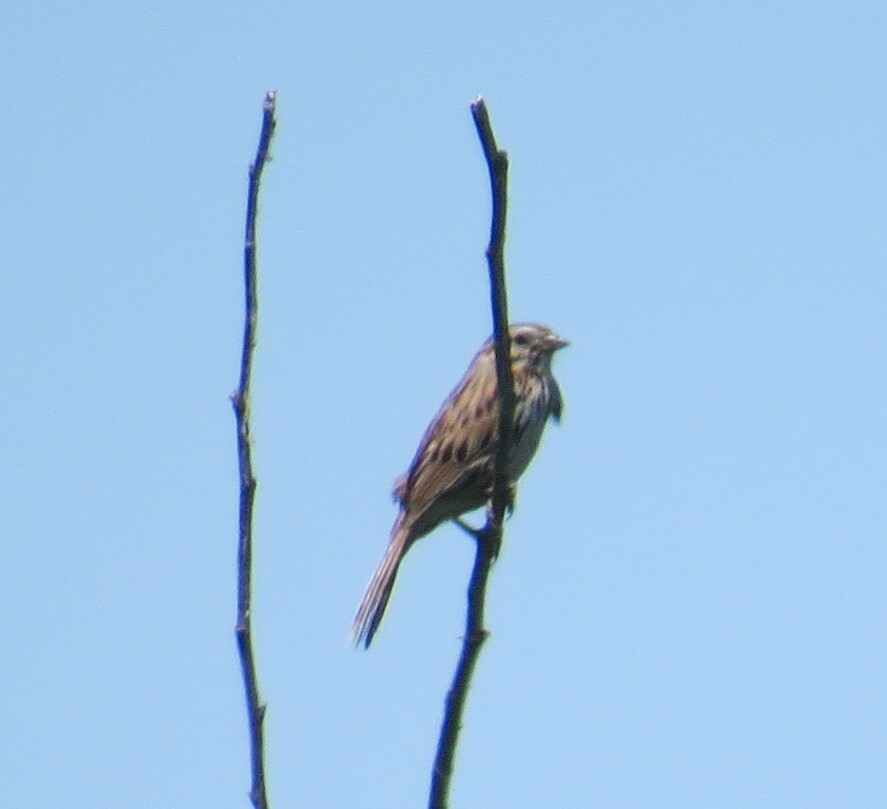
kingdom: Animalia
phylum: Chordata
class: Aves
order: Passeriformes
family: Passerellidae
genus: Melospiza
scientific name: Melospiza melodia
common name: Song sparrow
